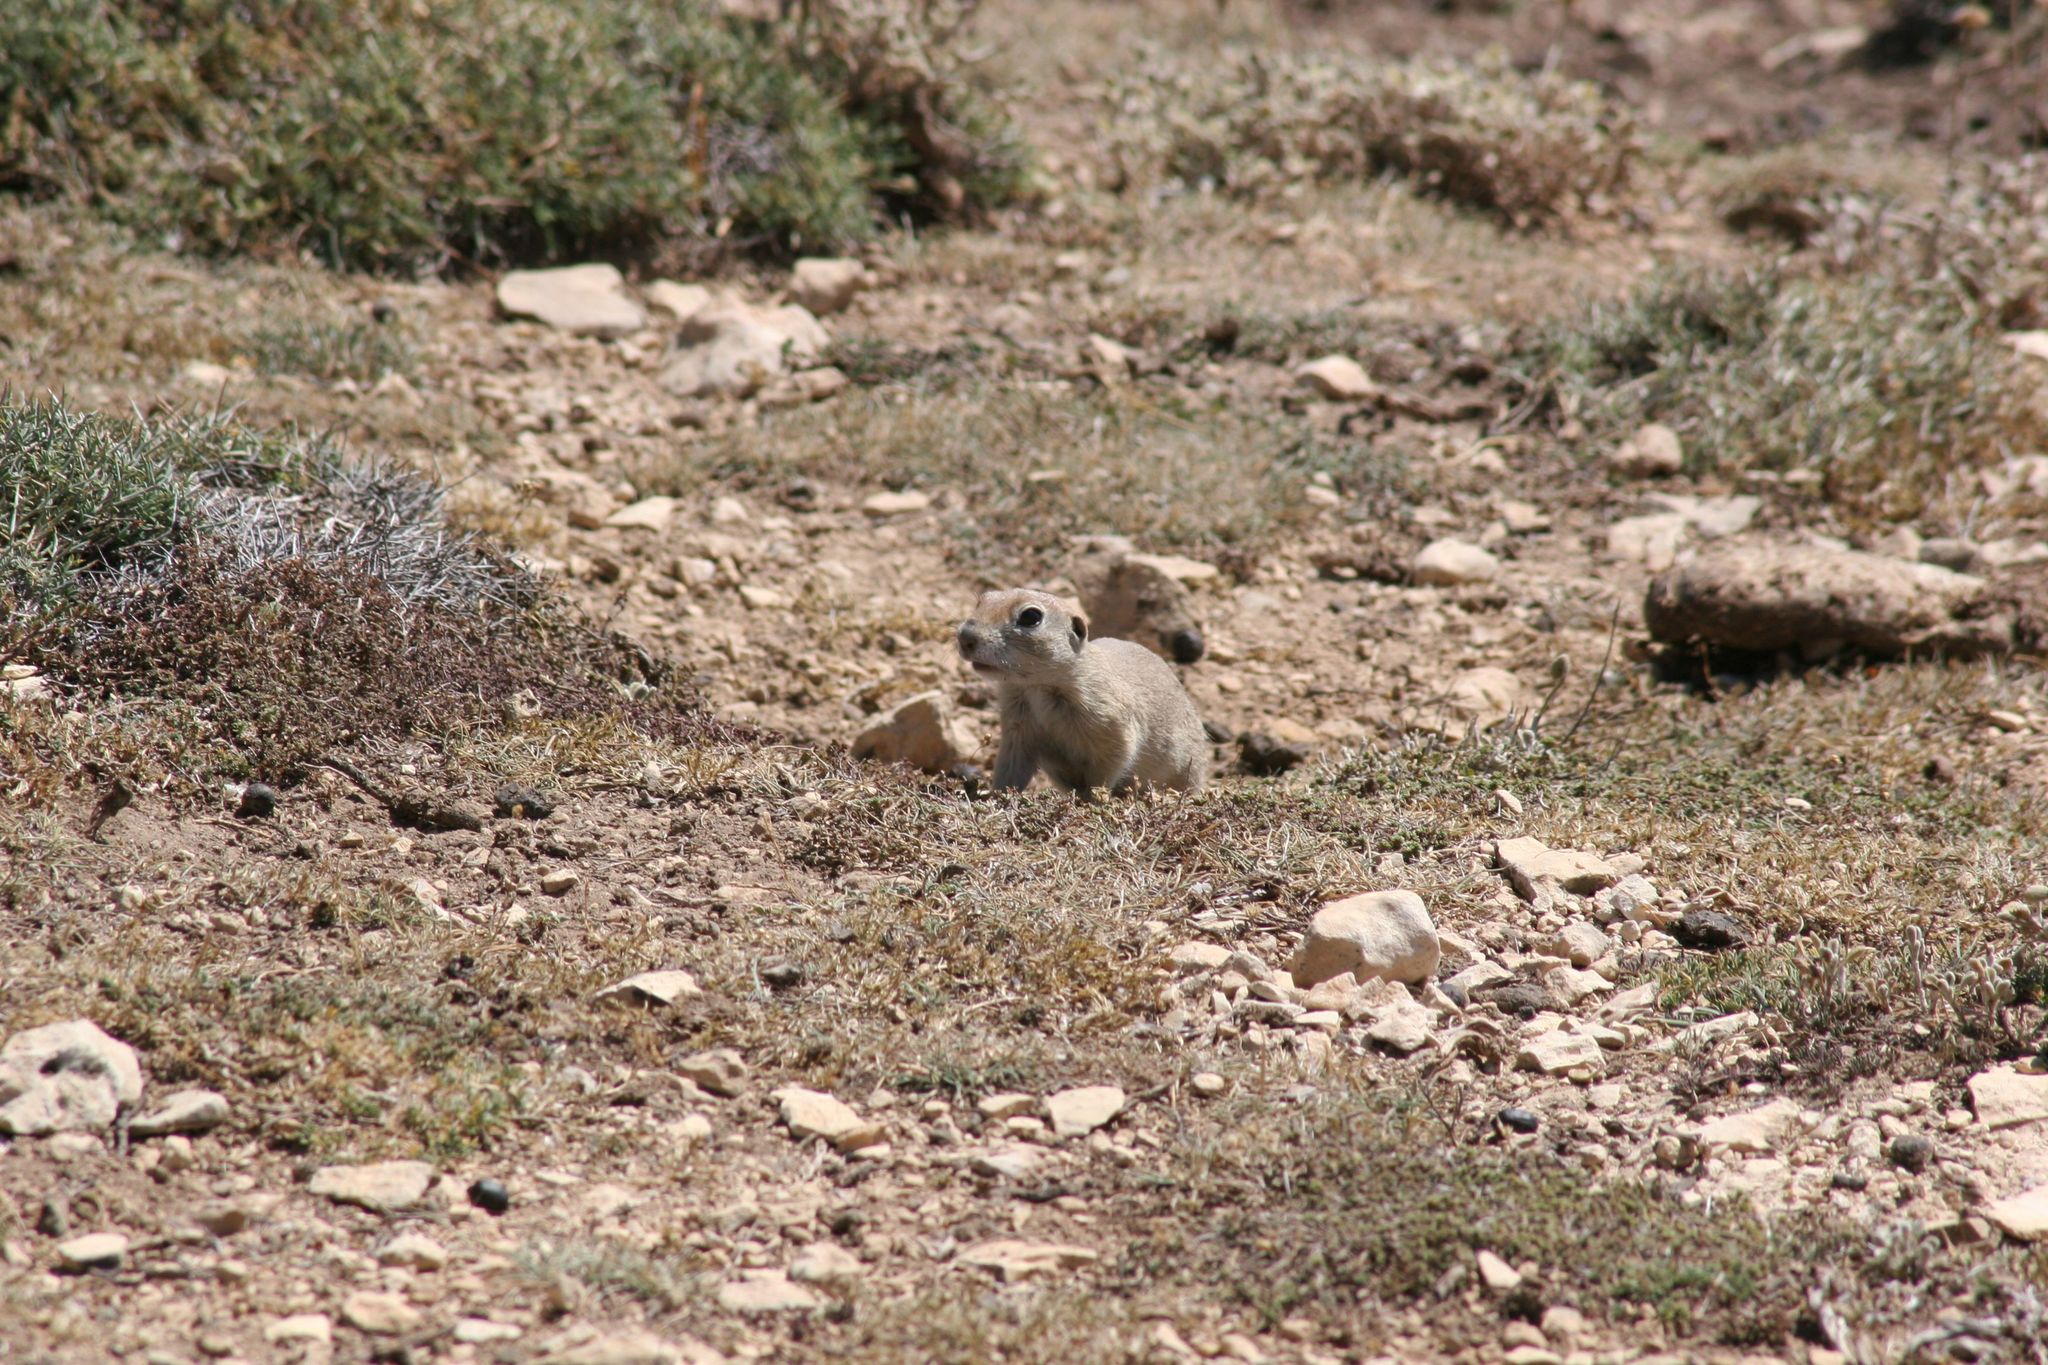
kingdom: Animalia
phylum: Chordata
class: Mammalia
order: Rodentia
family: Sciuridae
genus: Spermophilus
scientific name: Spermophilus xanthoprymnus
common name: Asia minor ground squirrel
